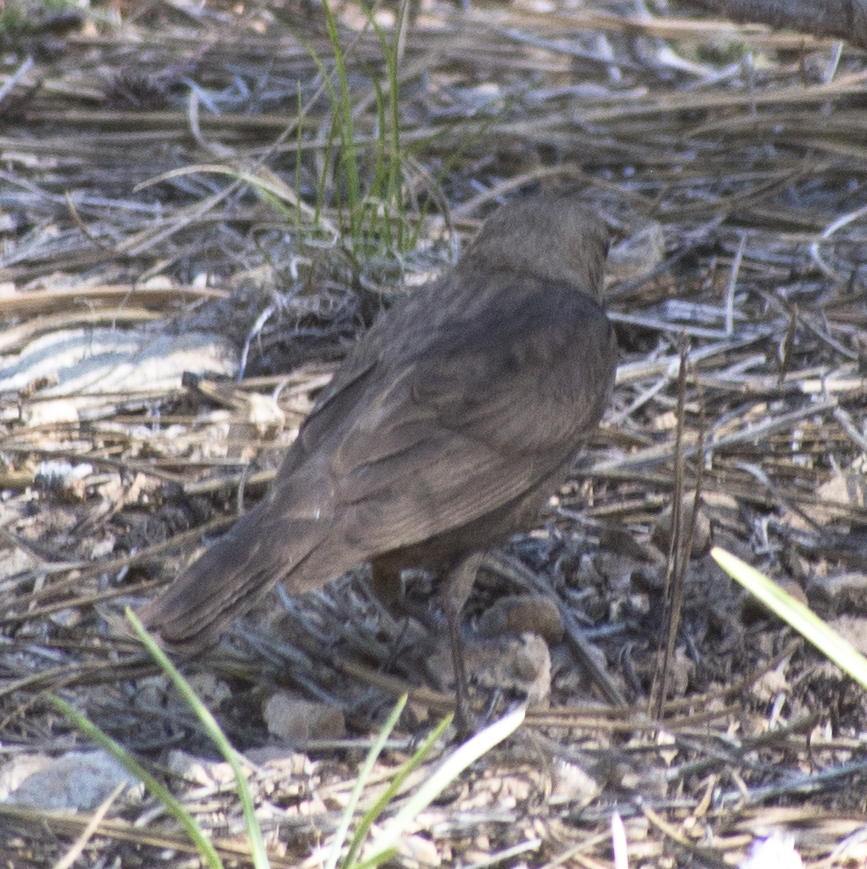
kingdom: Animalia
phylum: Chordata
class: Aves
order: Passeriformes
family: Icteridae
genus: Molothrus
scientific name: Molothrus ater
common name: Brown-headed cowbird
